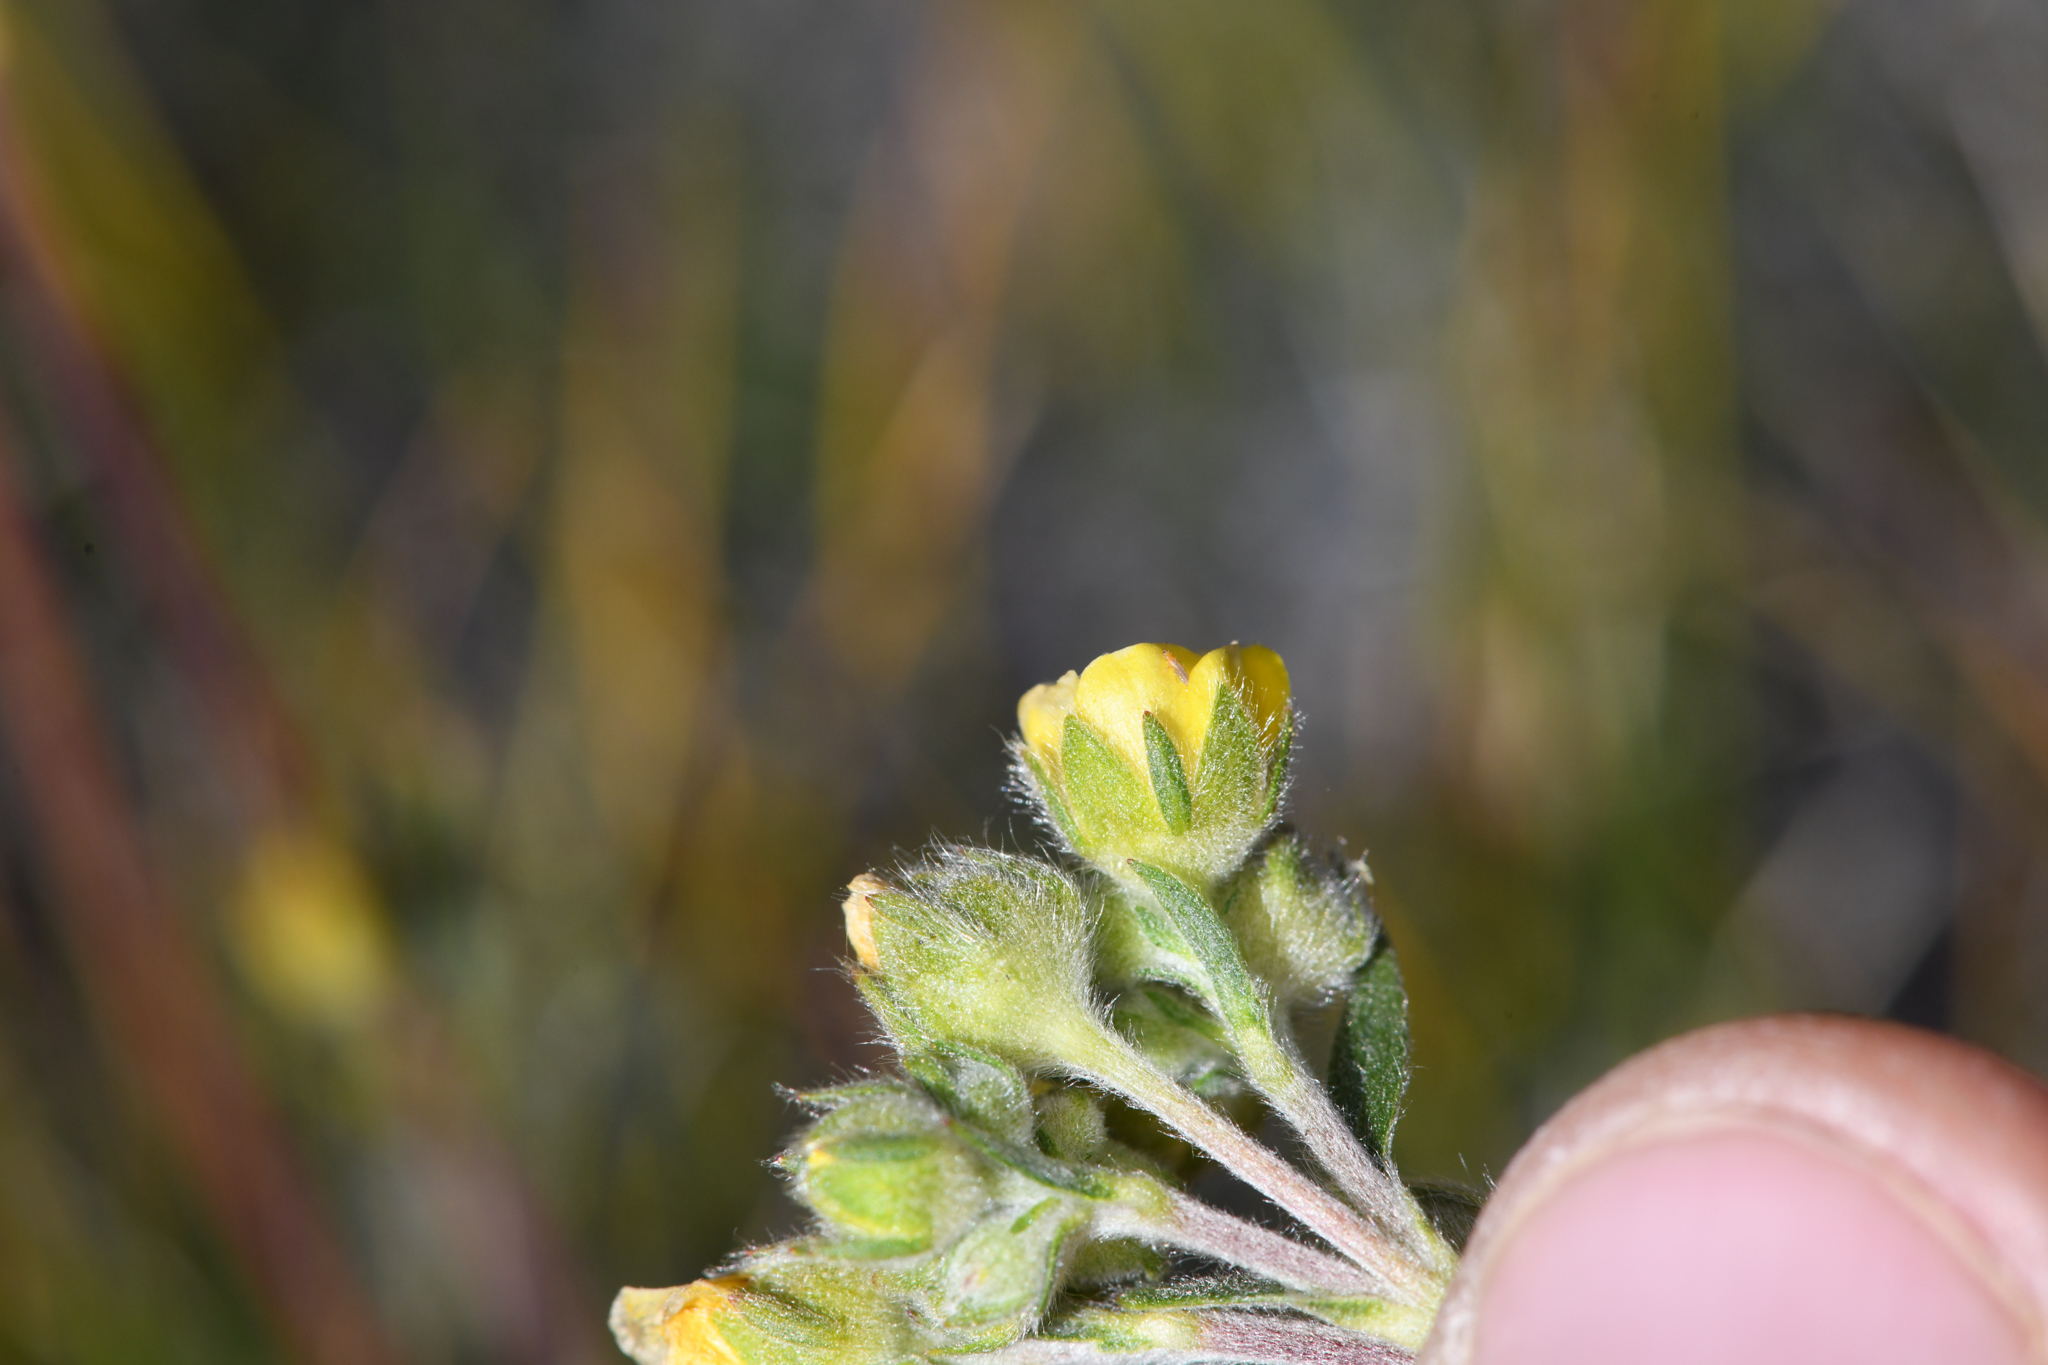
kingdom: Plantae
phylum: Tracheophyta
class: Magnoliopsida
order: Rosales
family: Rosaceae
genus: Potentilla
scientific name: Potentilla jepsonii
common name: Jepson's cinquefoil
